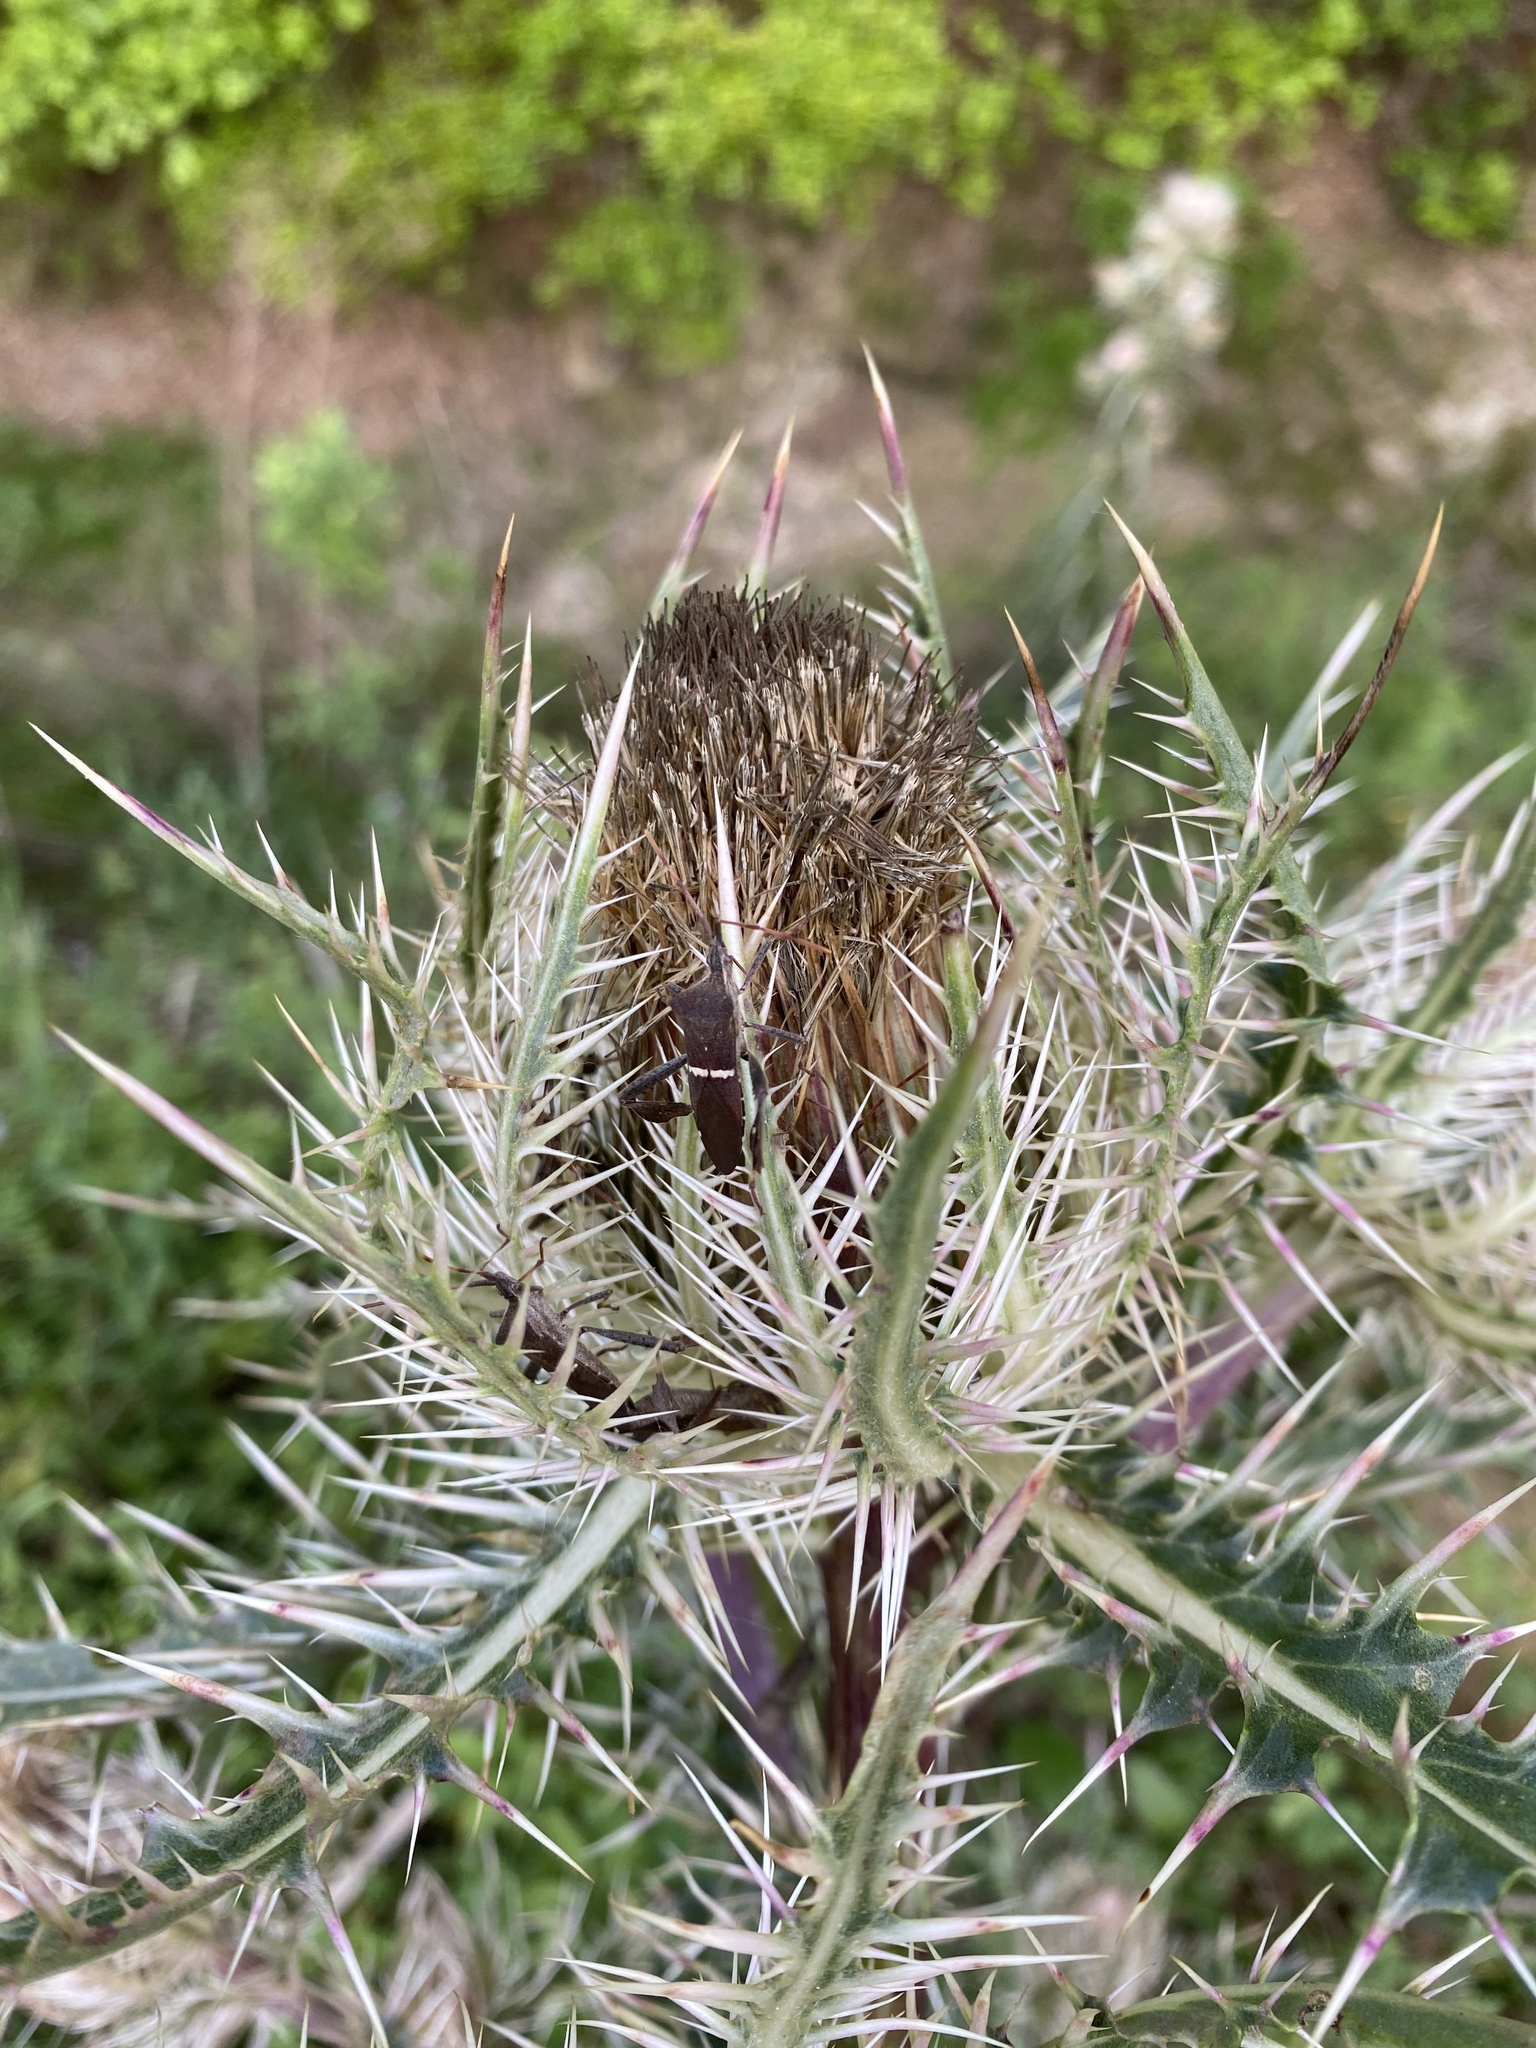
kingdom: Plantae
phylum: Tracheophyta
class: Magnoliopsida
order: Asterales
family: Asteraceae
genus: Cirsium
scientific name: Cirsium horridulum
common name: Bristly thistle
